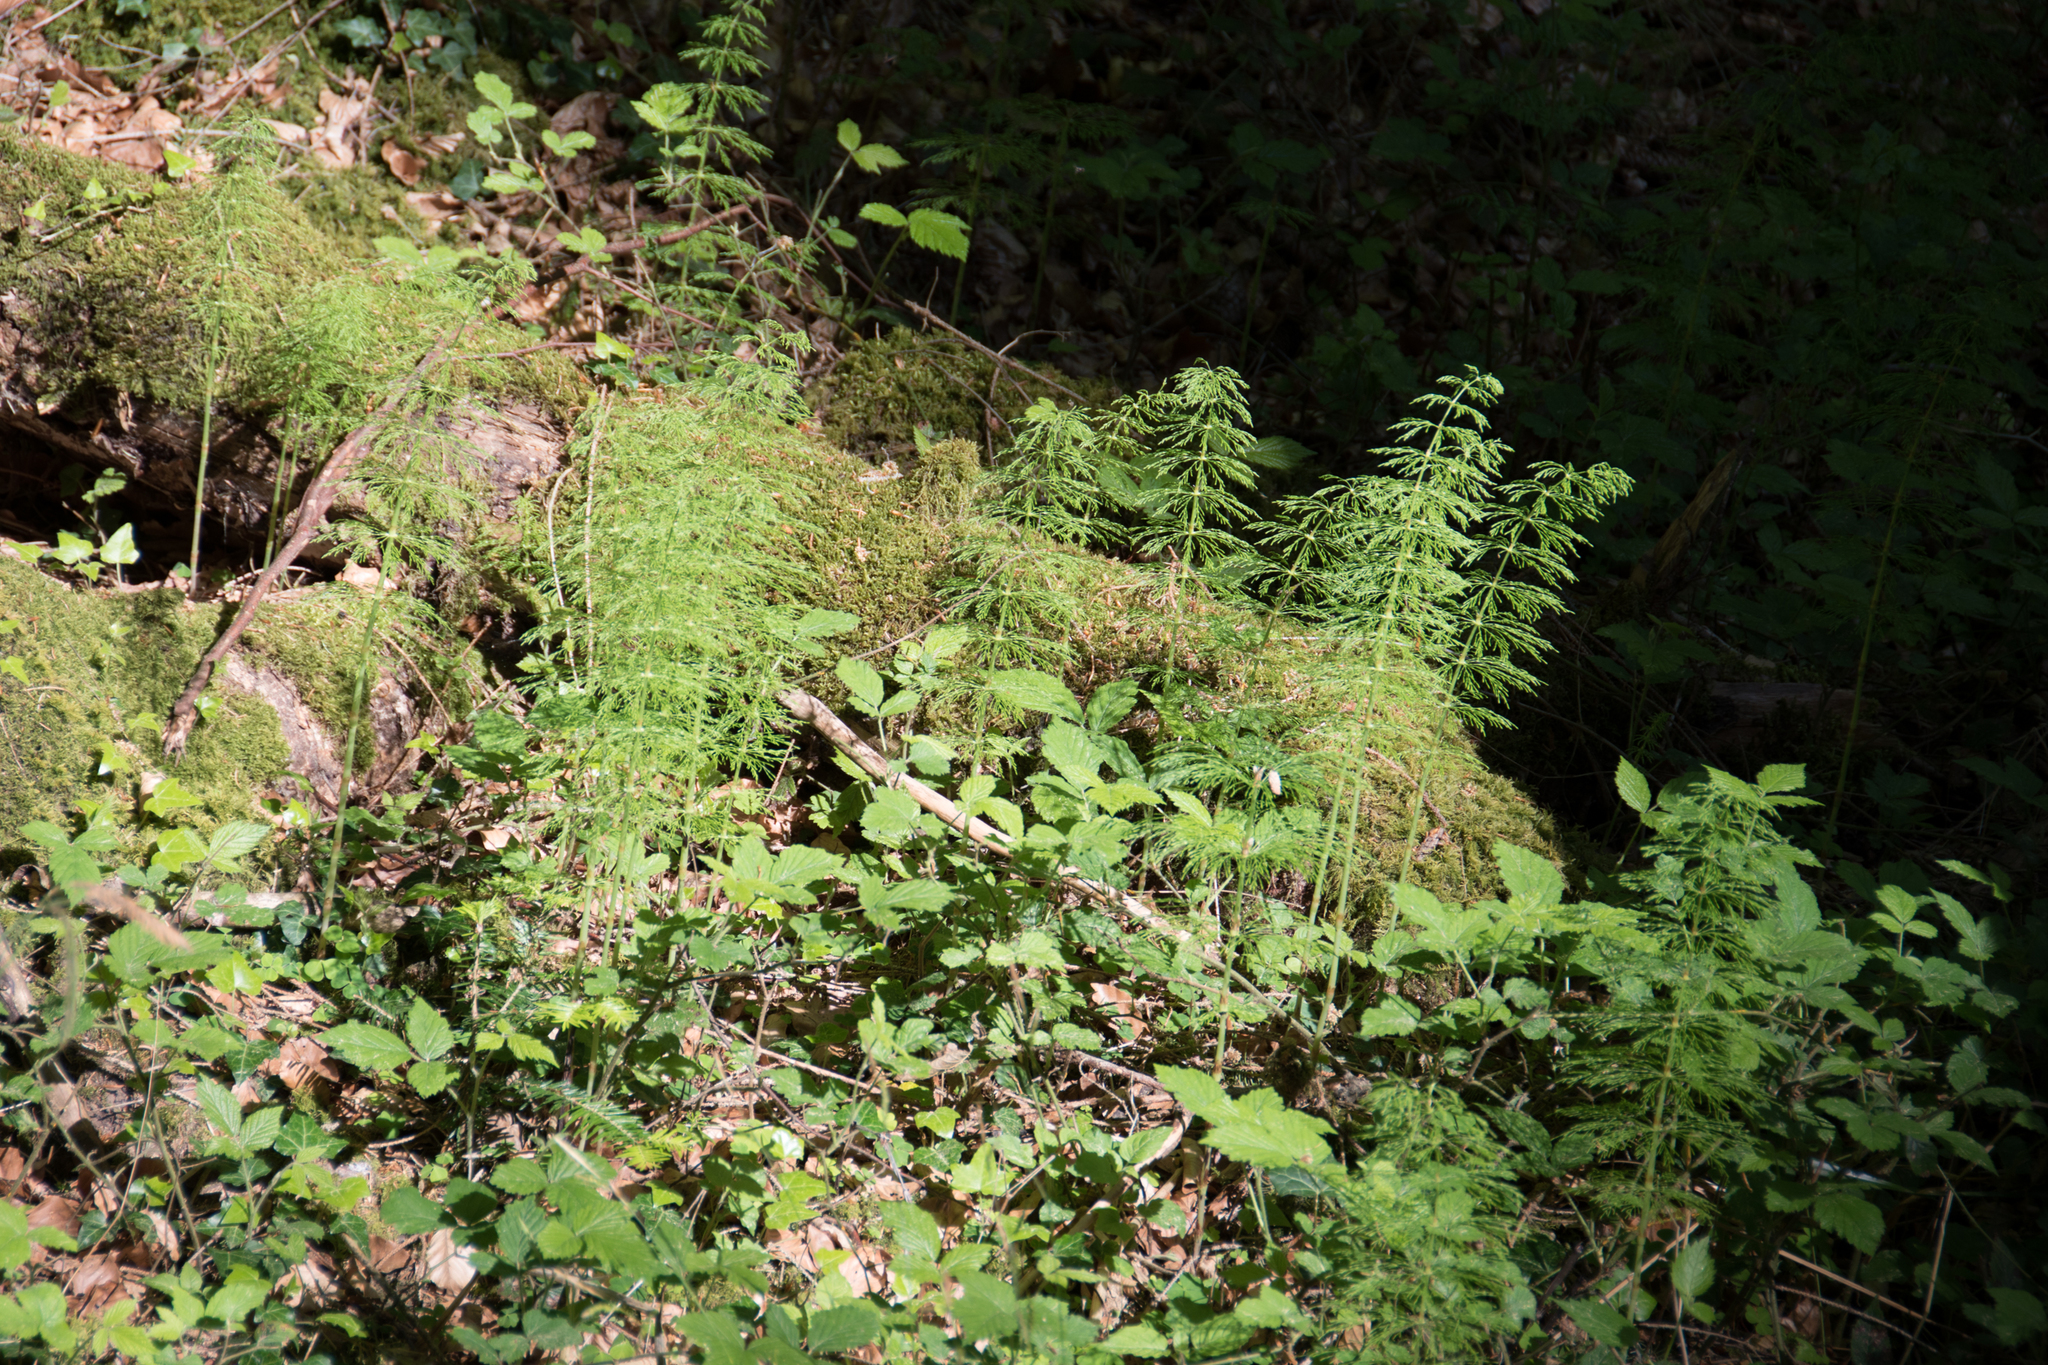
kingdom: Plantae
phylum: Tracheophyta
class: Polypodiopsida
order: Equisetales
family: Equisetaceae
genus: Equisetum
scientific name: Equisetum sylvaticum
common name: Wood horsetail
